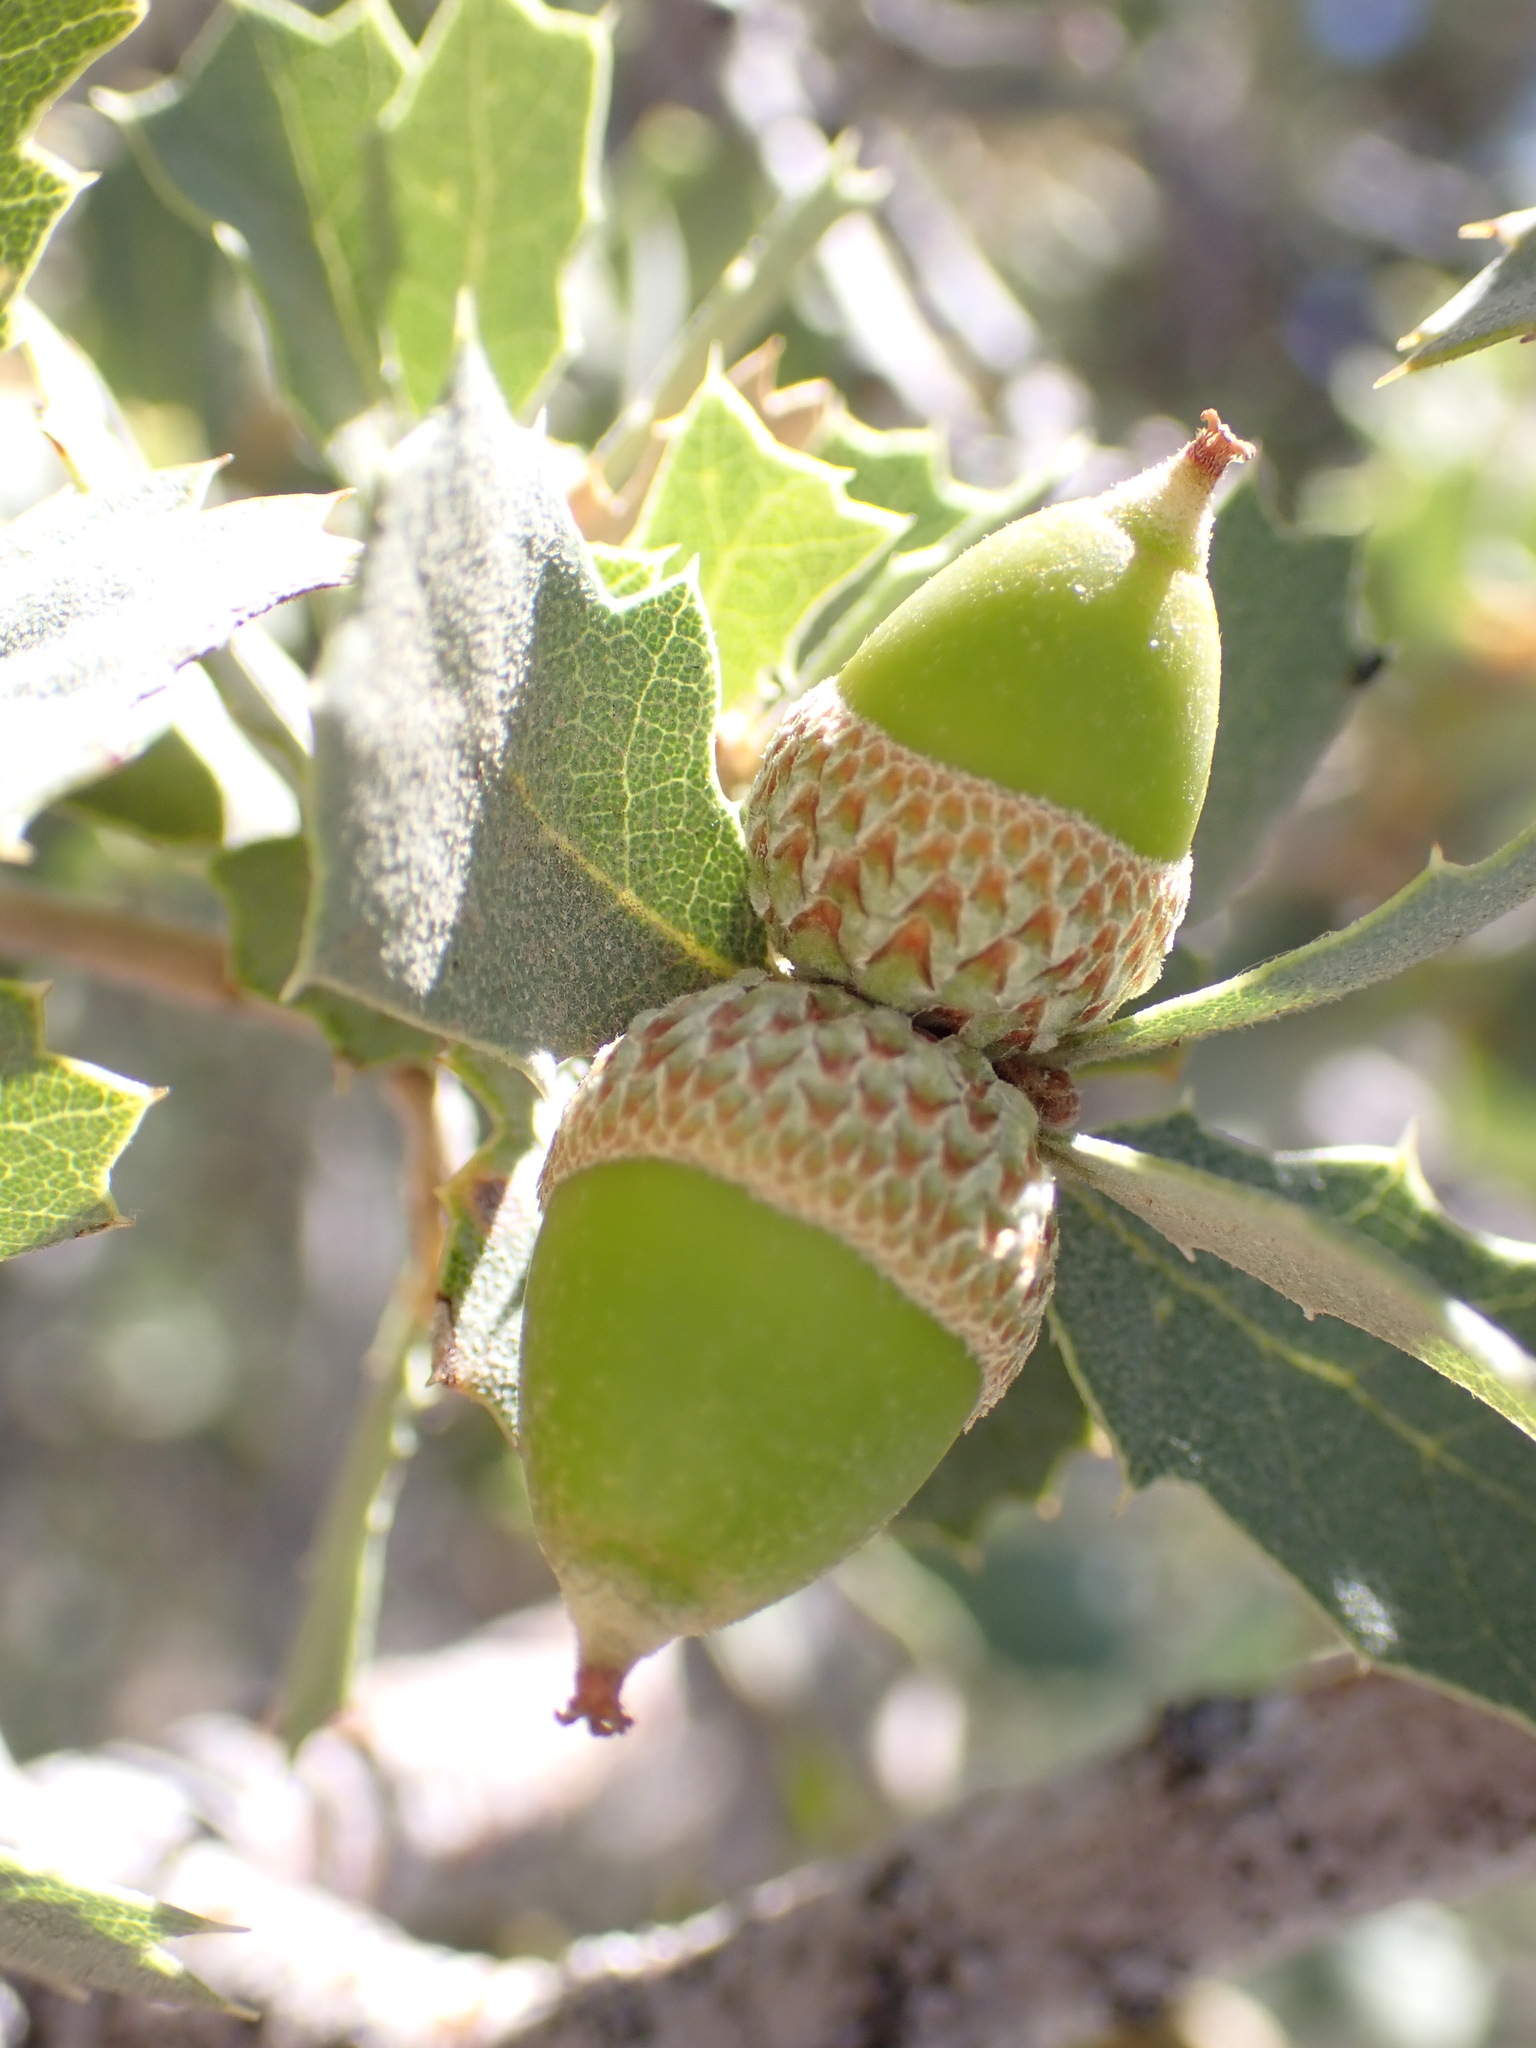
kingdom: Plantae
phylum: Tracheophyta
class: Magnoliopsida
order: Fagales
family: Fagaceae
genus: Quercus
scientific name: Quercus john-tuckeri
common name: Tucker's oak
